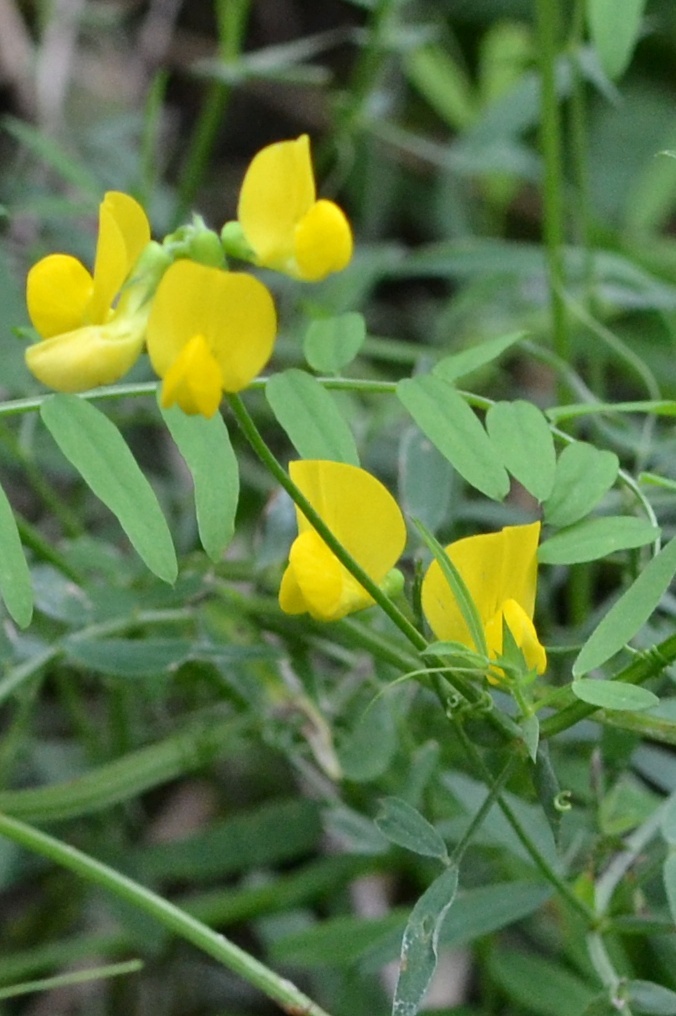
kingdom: Plantae
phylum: Tracheophyta
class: Magnoliopsida
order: Fabales
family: Fabaceae
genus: Lathyrus
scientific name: Lathyrus pratensis
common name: Meadow vetchling
